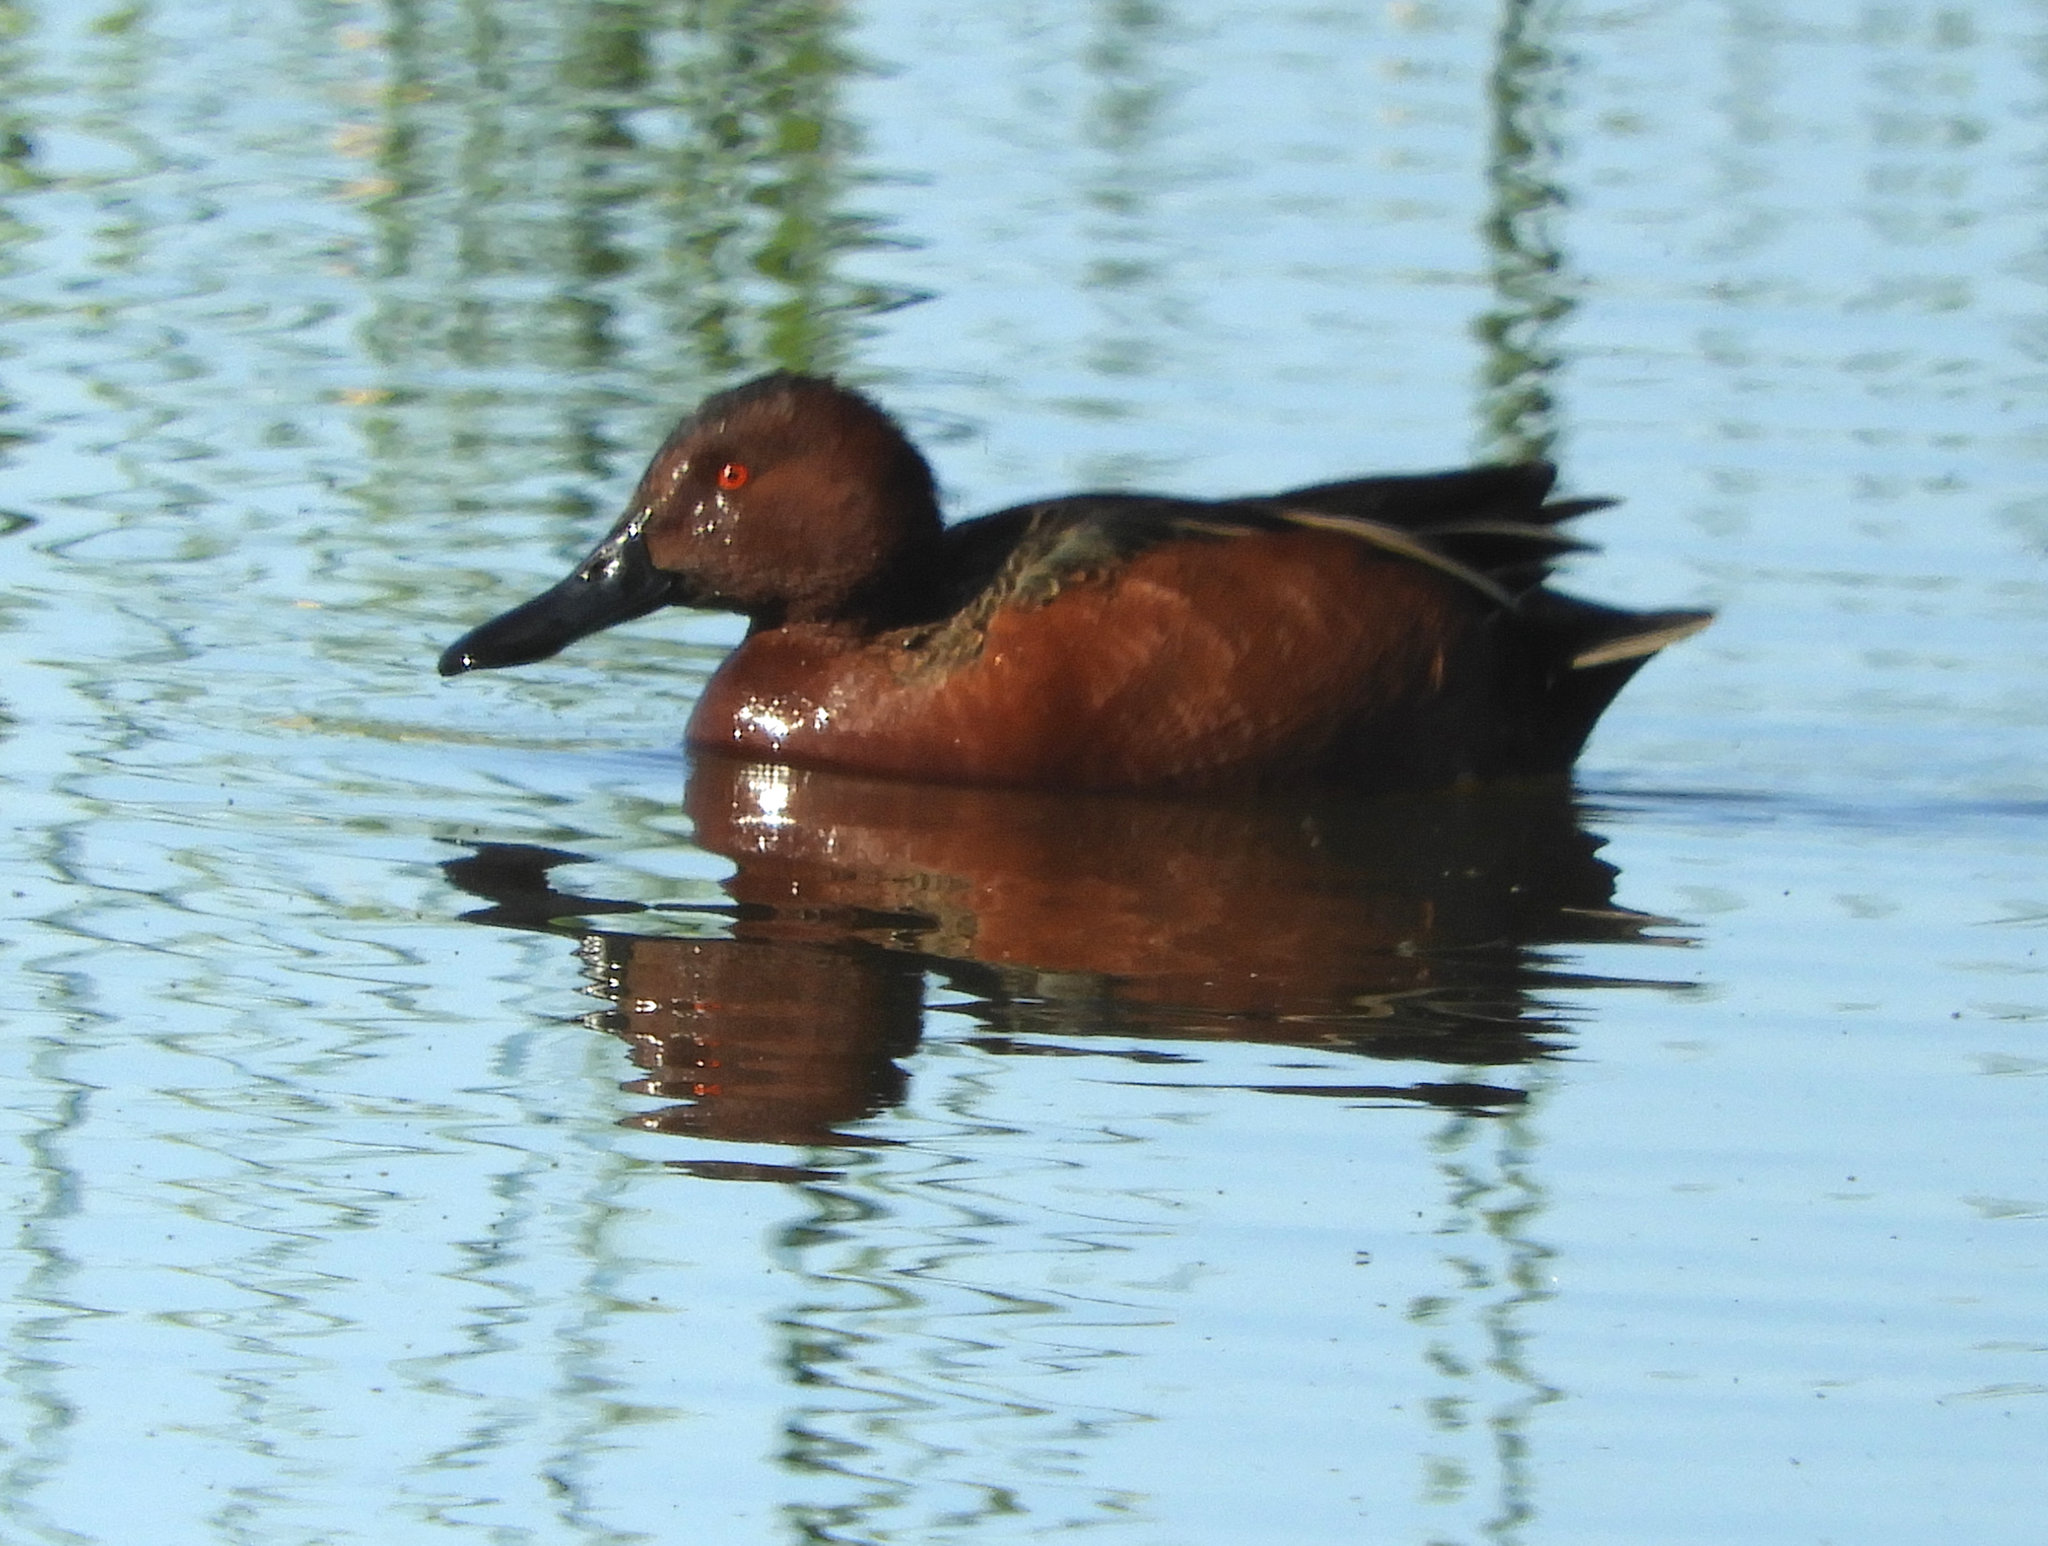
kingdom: Animalia
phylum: Chordata
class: Aves
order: Anseriformes
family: Anatidae
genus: Spatula
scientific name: Spatula cyanoptera
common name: Cinnamon teal
